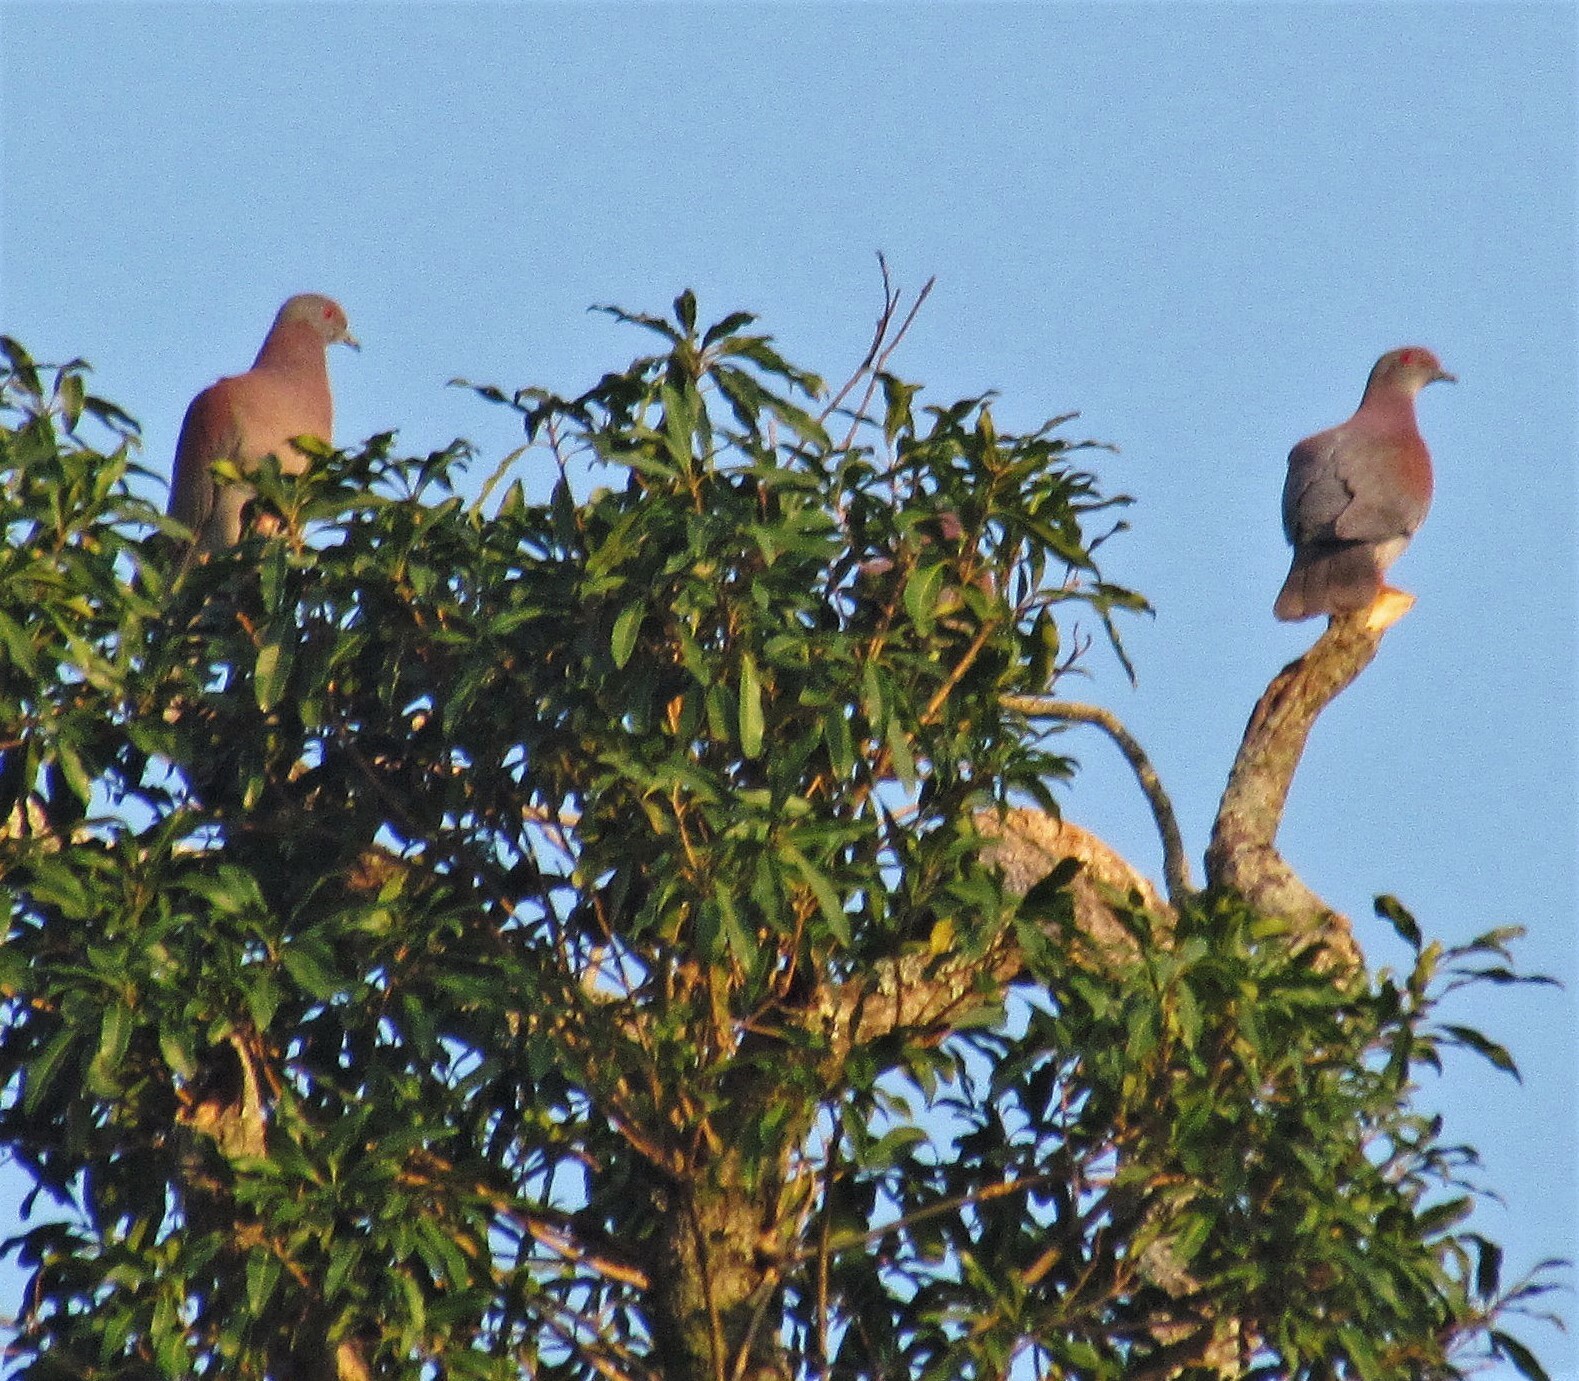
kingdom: Animalia
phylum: Chordata
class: Aves
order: Columbiformes
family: Columbidae
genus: Patagioenas
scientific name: Patagioenas cayennensis
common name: Pale-vented pigeon
